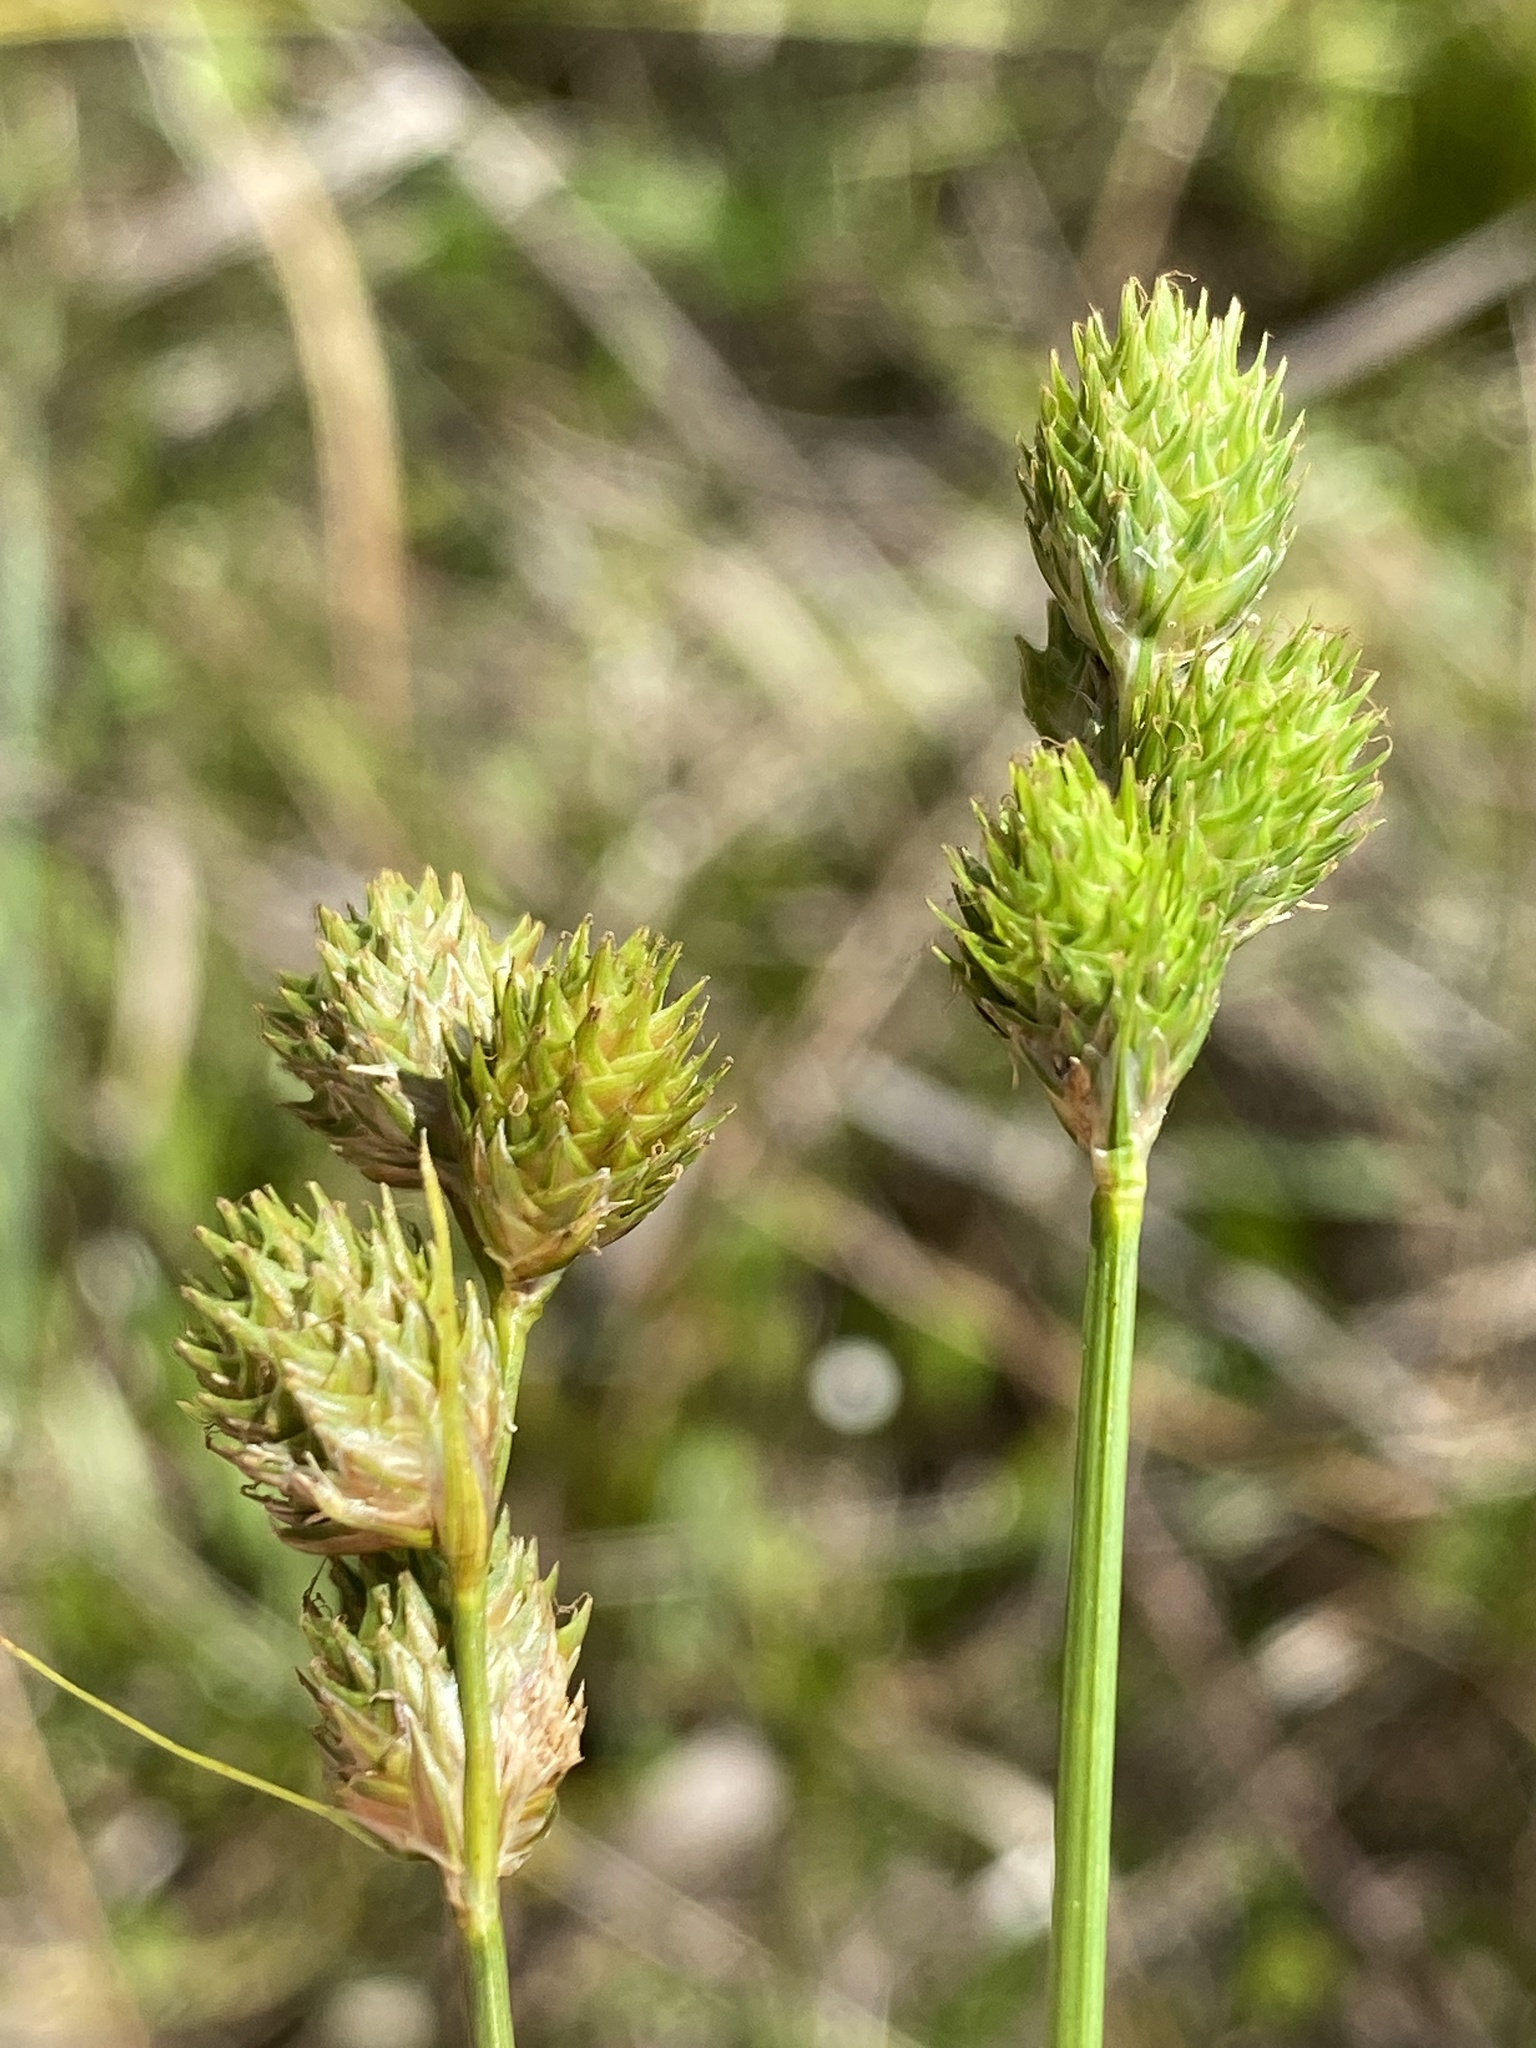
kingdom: Plantae
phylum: Tracheophyta
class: Liliopsida
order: Poales
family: Cyperaceae
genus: Carex
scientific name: Carex vexans
